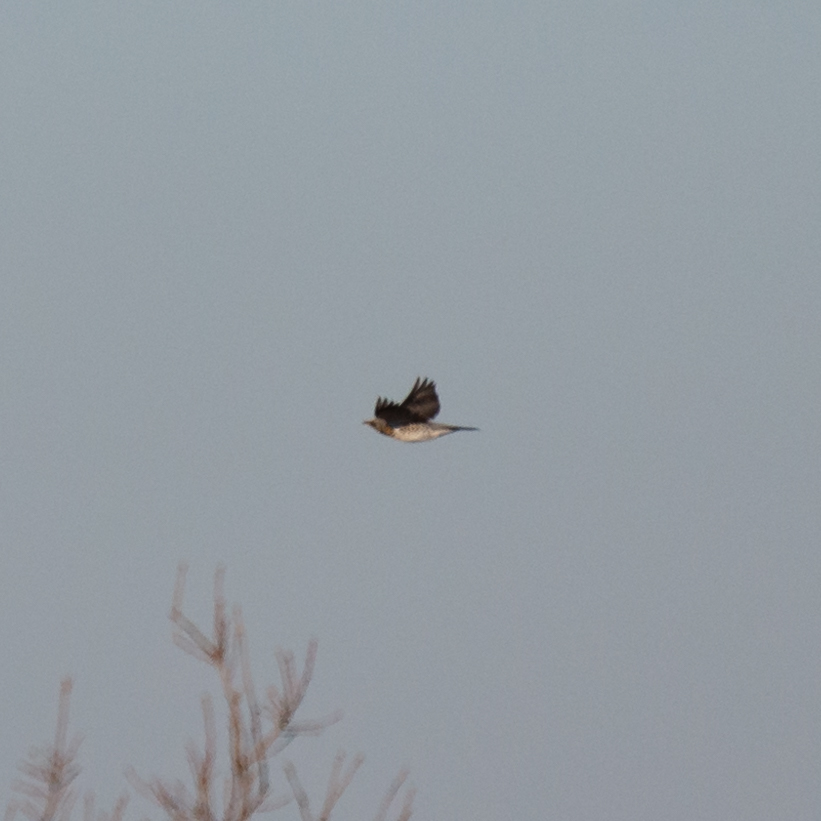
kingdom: Animalia
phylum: Chordata
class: Aves
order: Passeriformes
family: Turdidae
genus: Turdus
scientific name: Turdus pilaris
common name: Fieldfare
